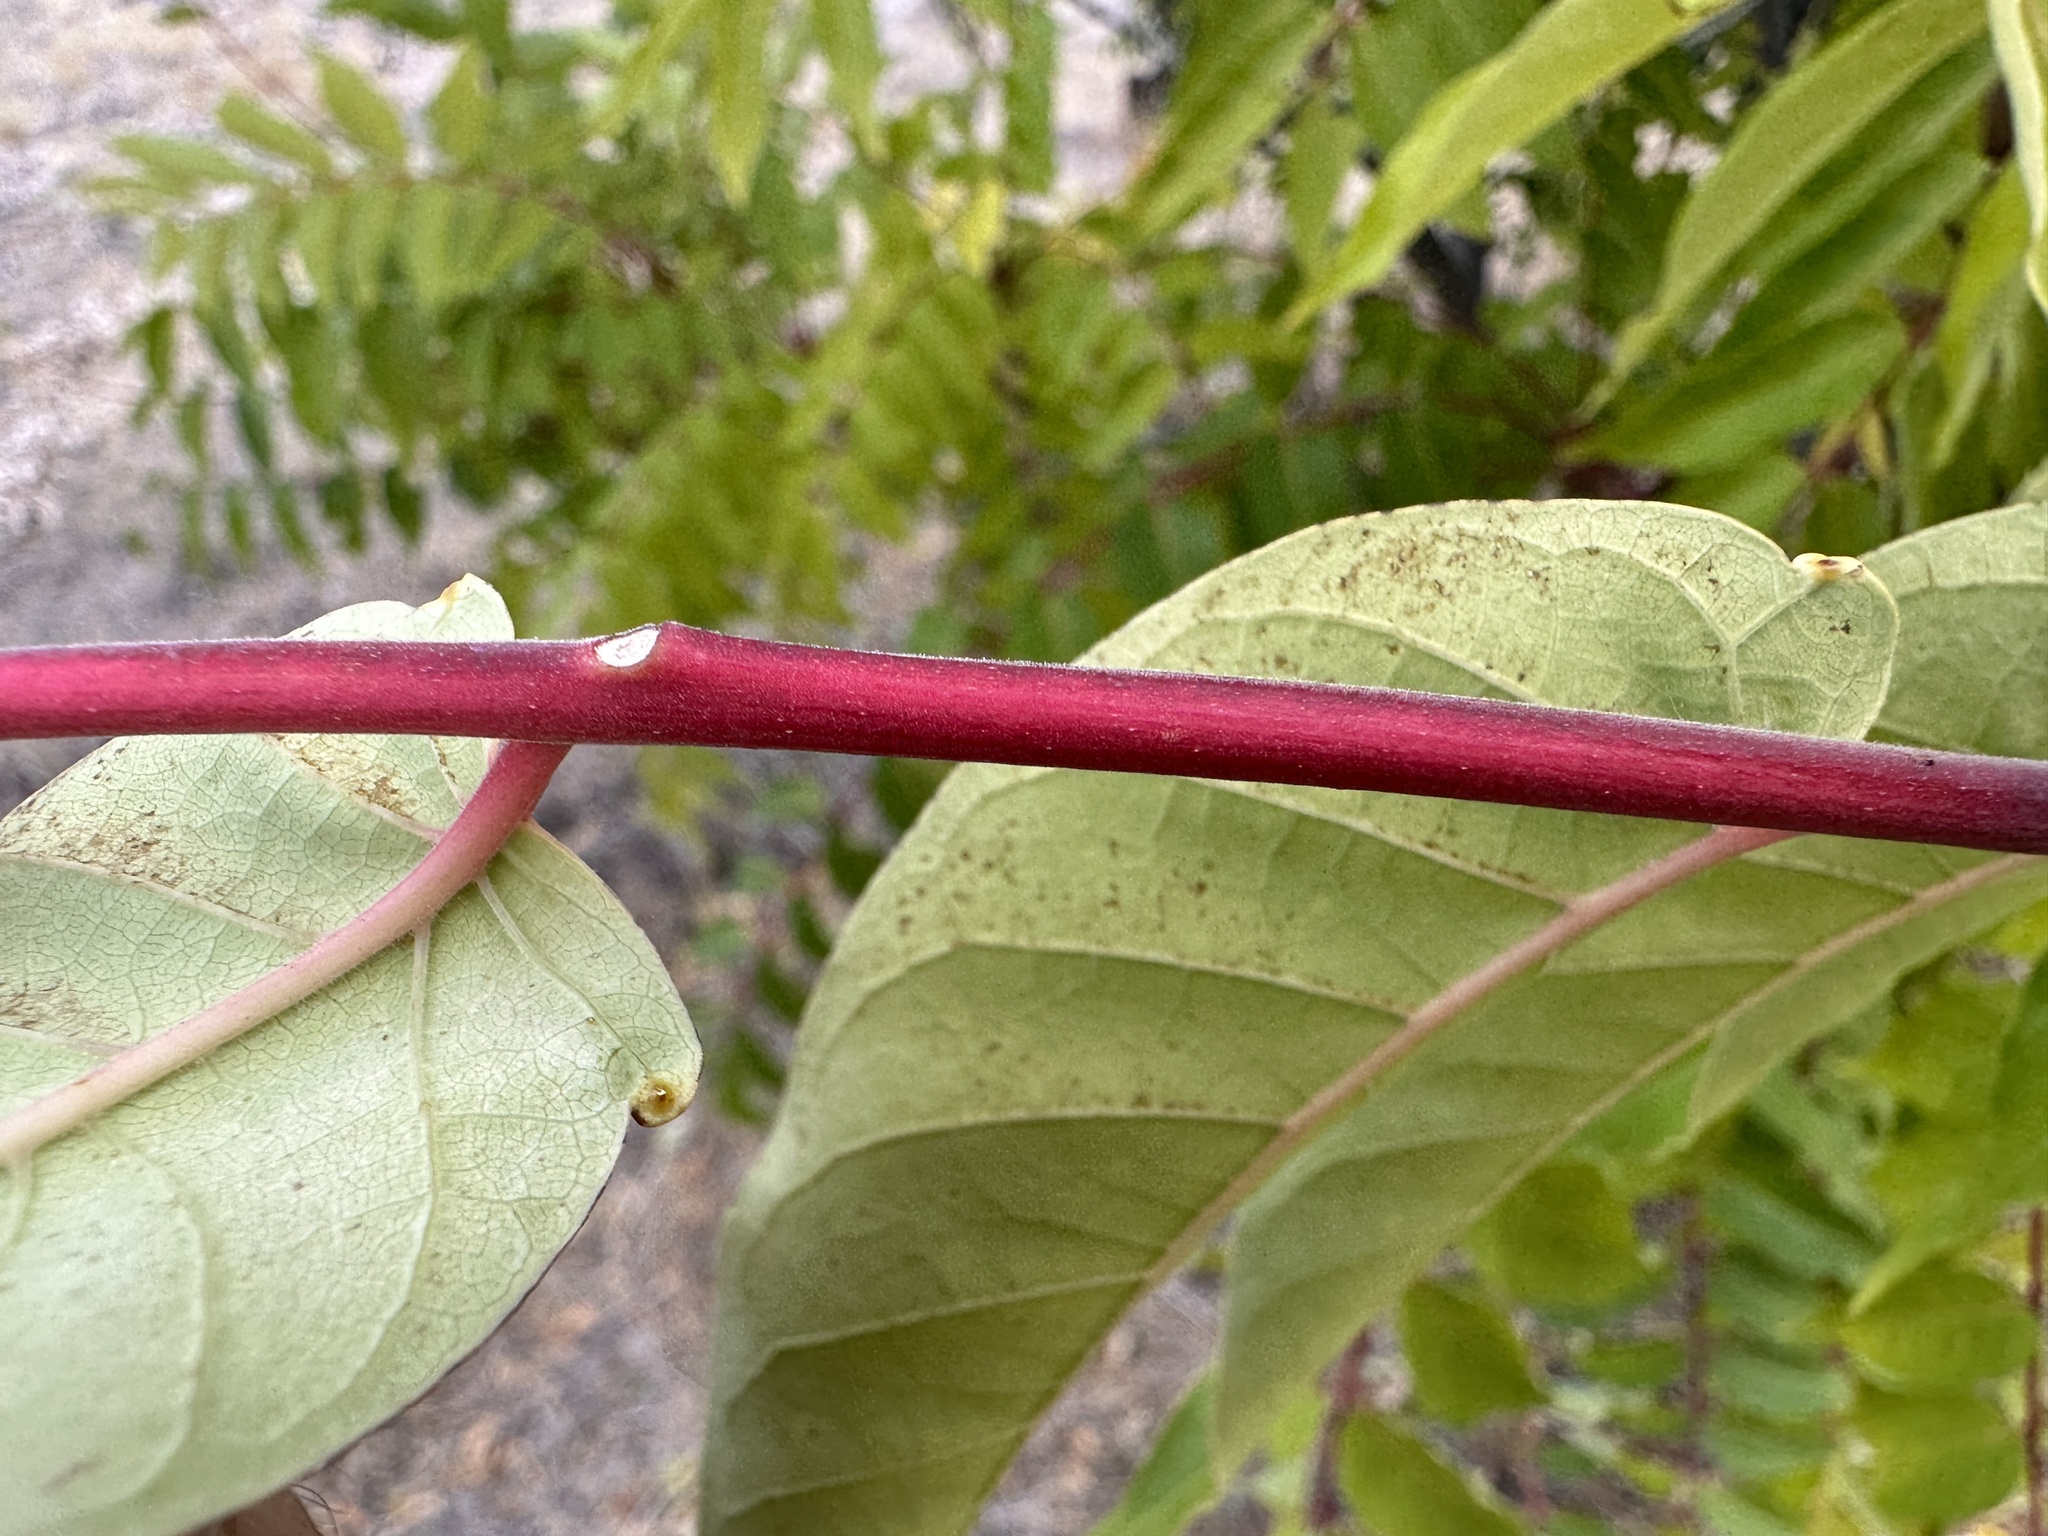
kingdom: Plantae
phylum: Tracheophyta
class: Magnoliopsida
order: Sapindales
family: Simaroubaceae
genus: Ailanthus
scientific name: Ailanthus altissima
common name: Tree-of-heaven
